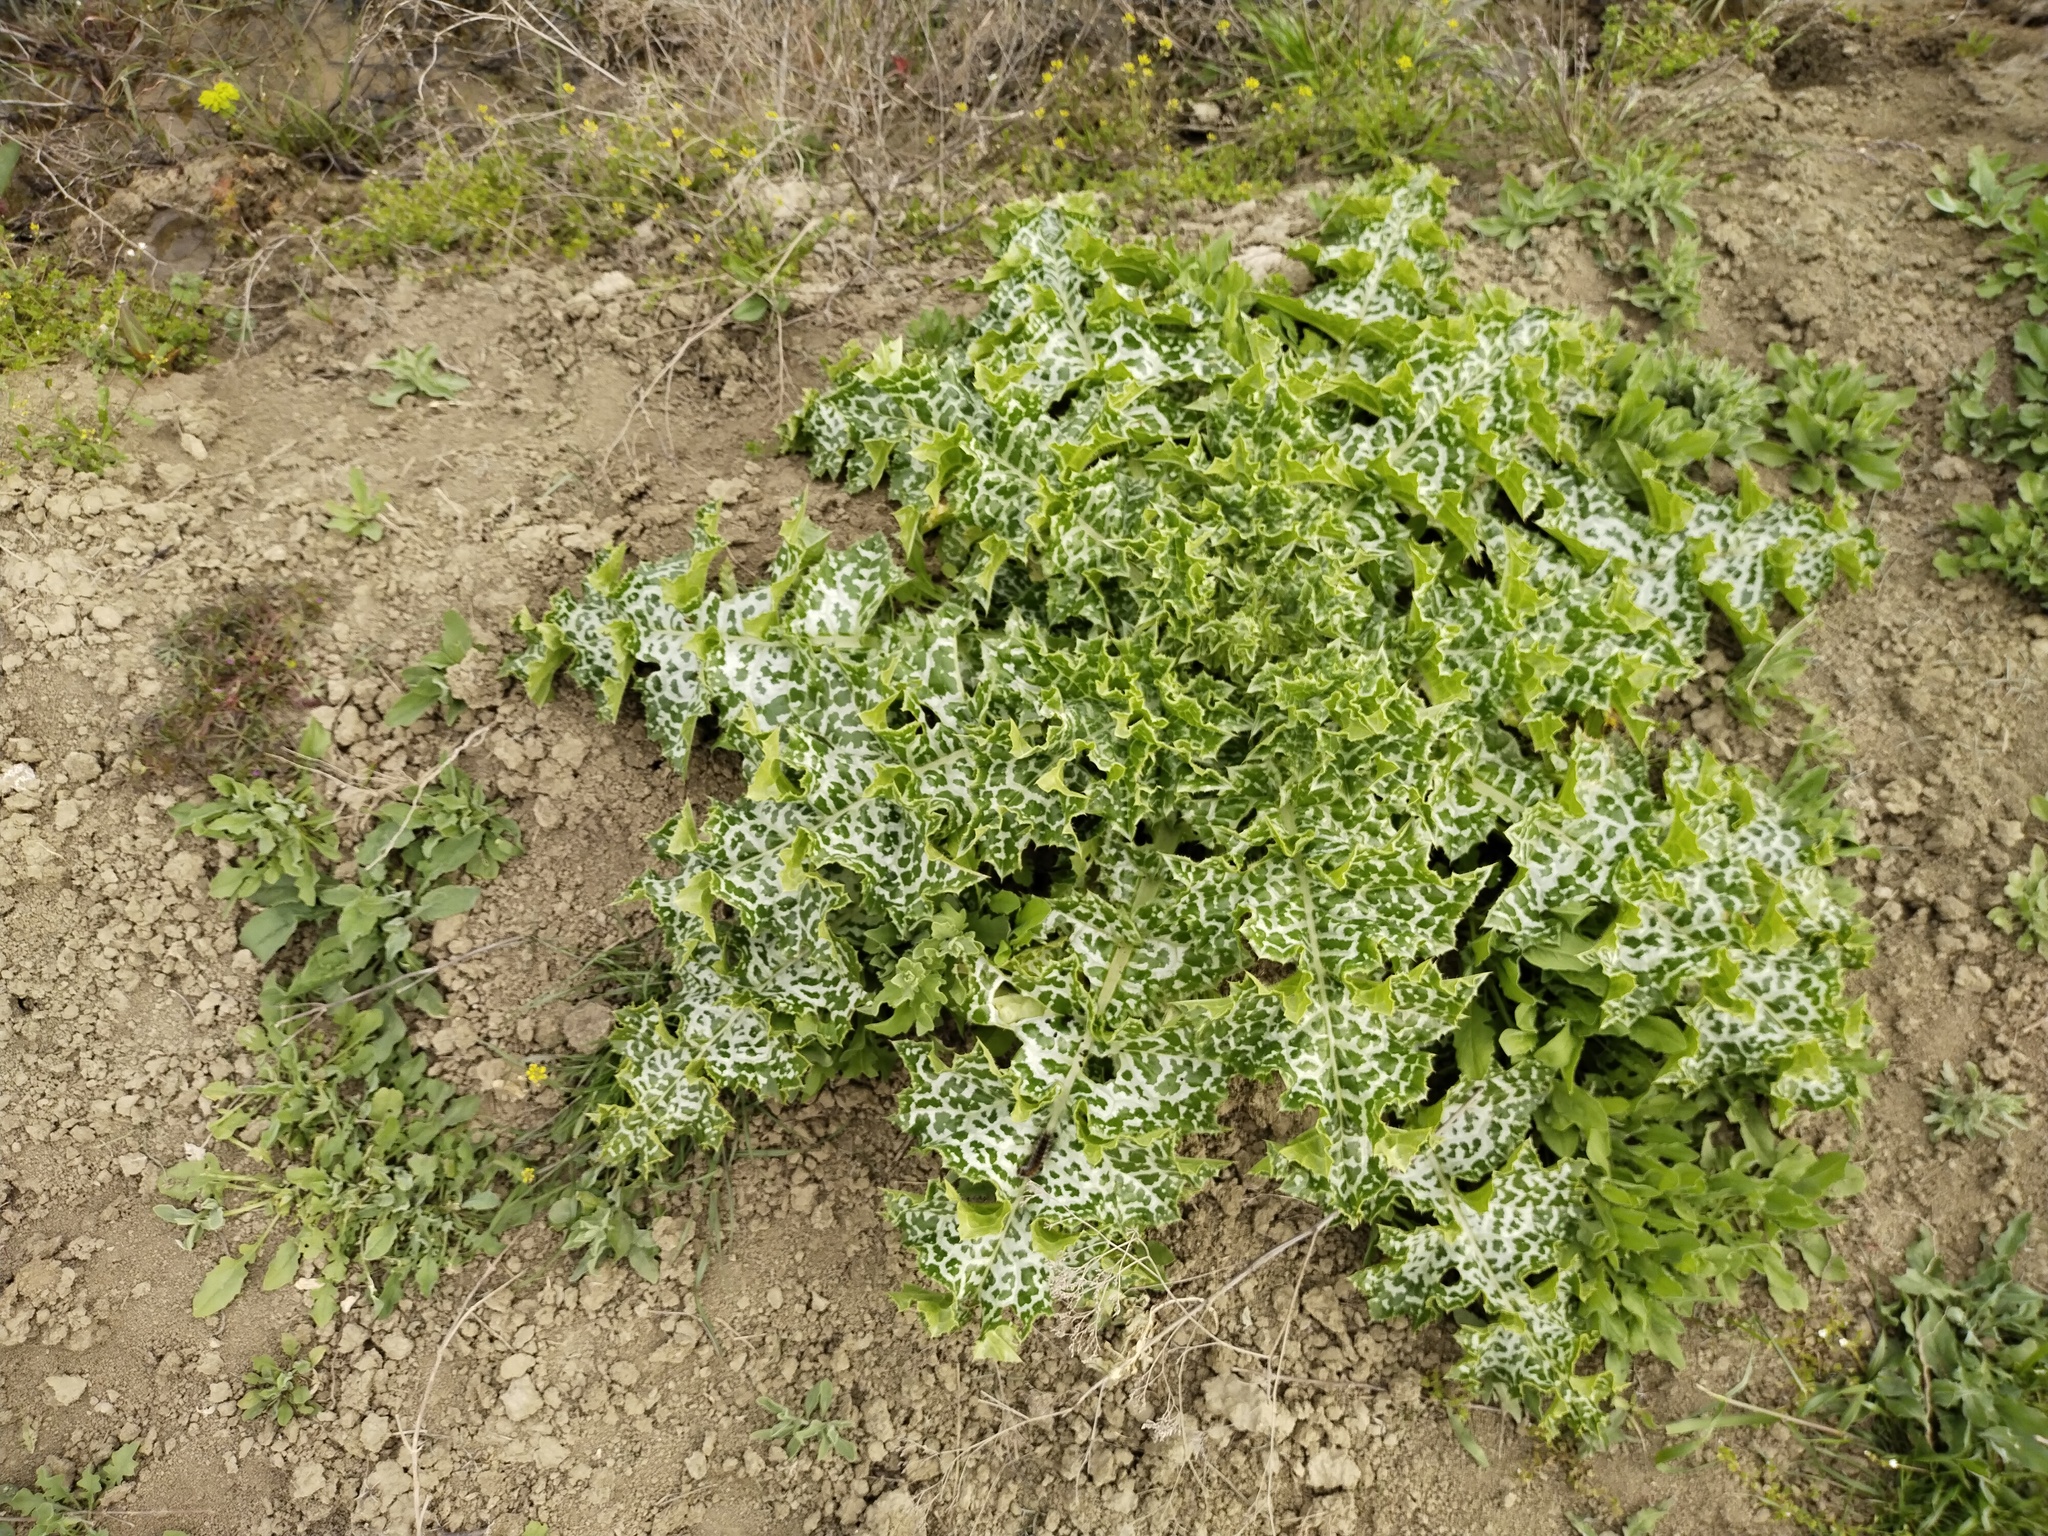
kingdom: Plantae
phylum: Tracheophyta
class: Magnoliopsida
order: Asterales
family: Asteraceae
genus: Silybum
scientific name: Silybum marianum
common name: Milk thistle
